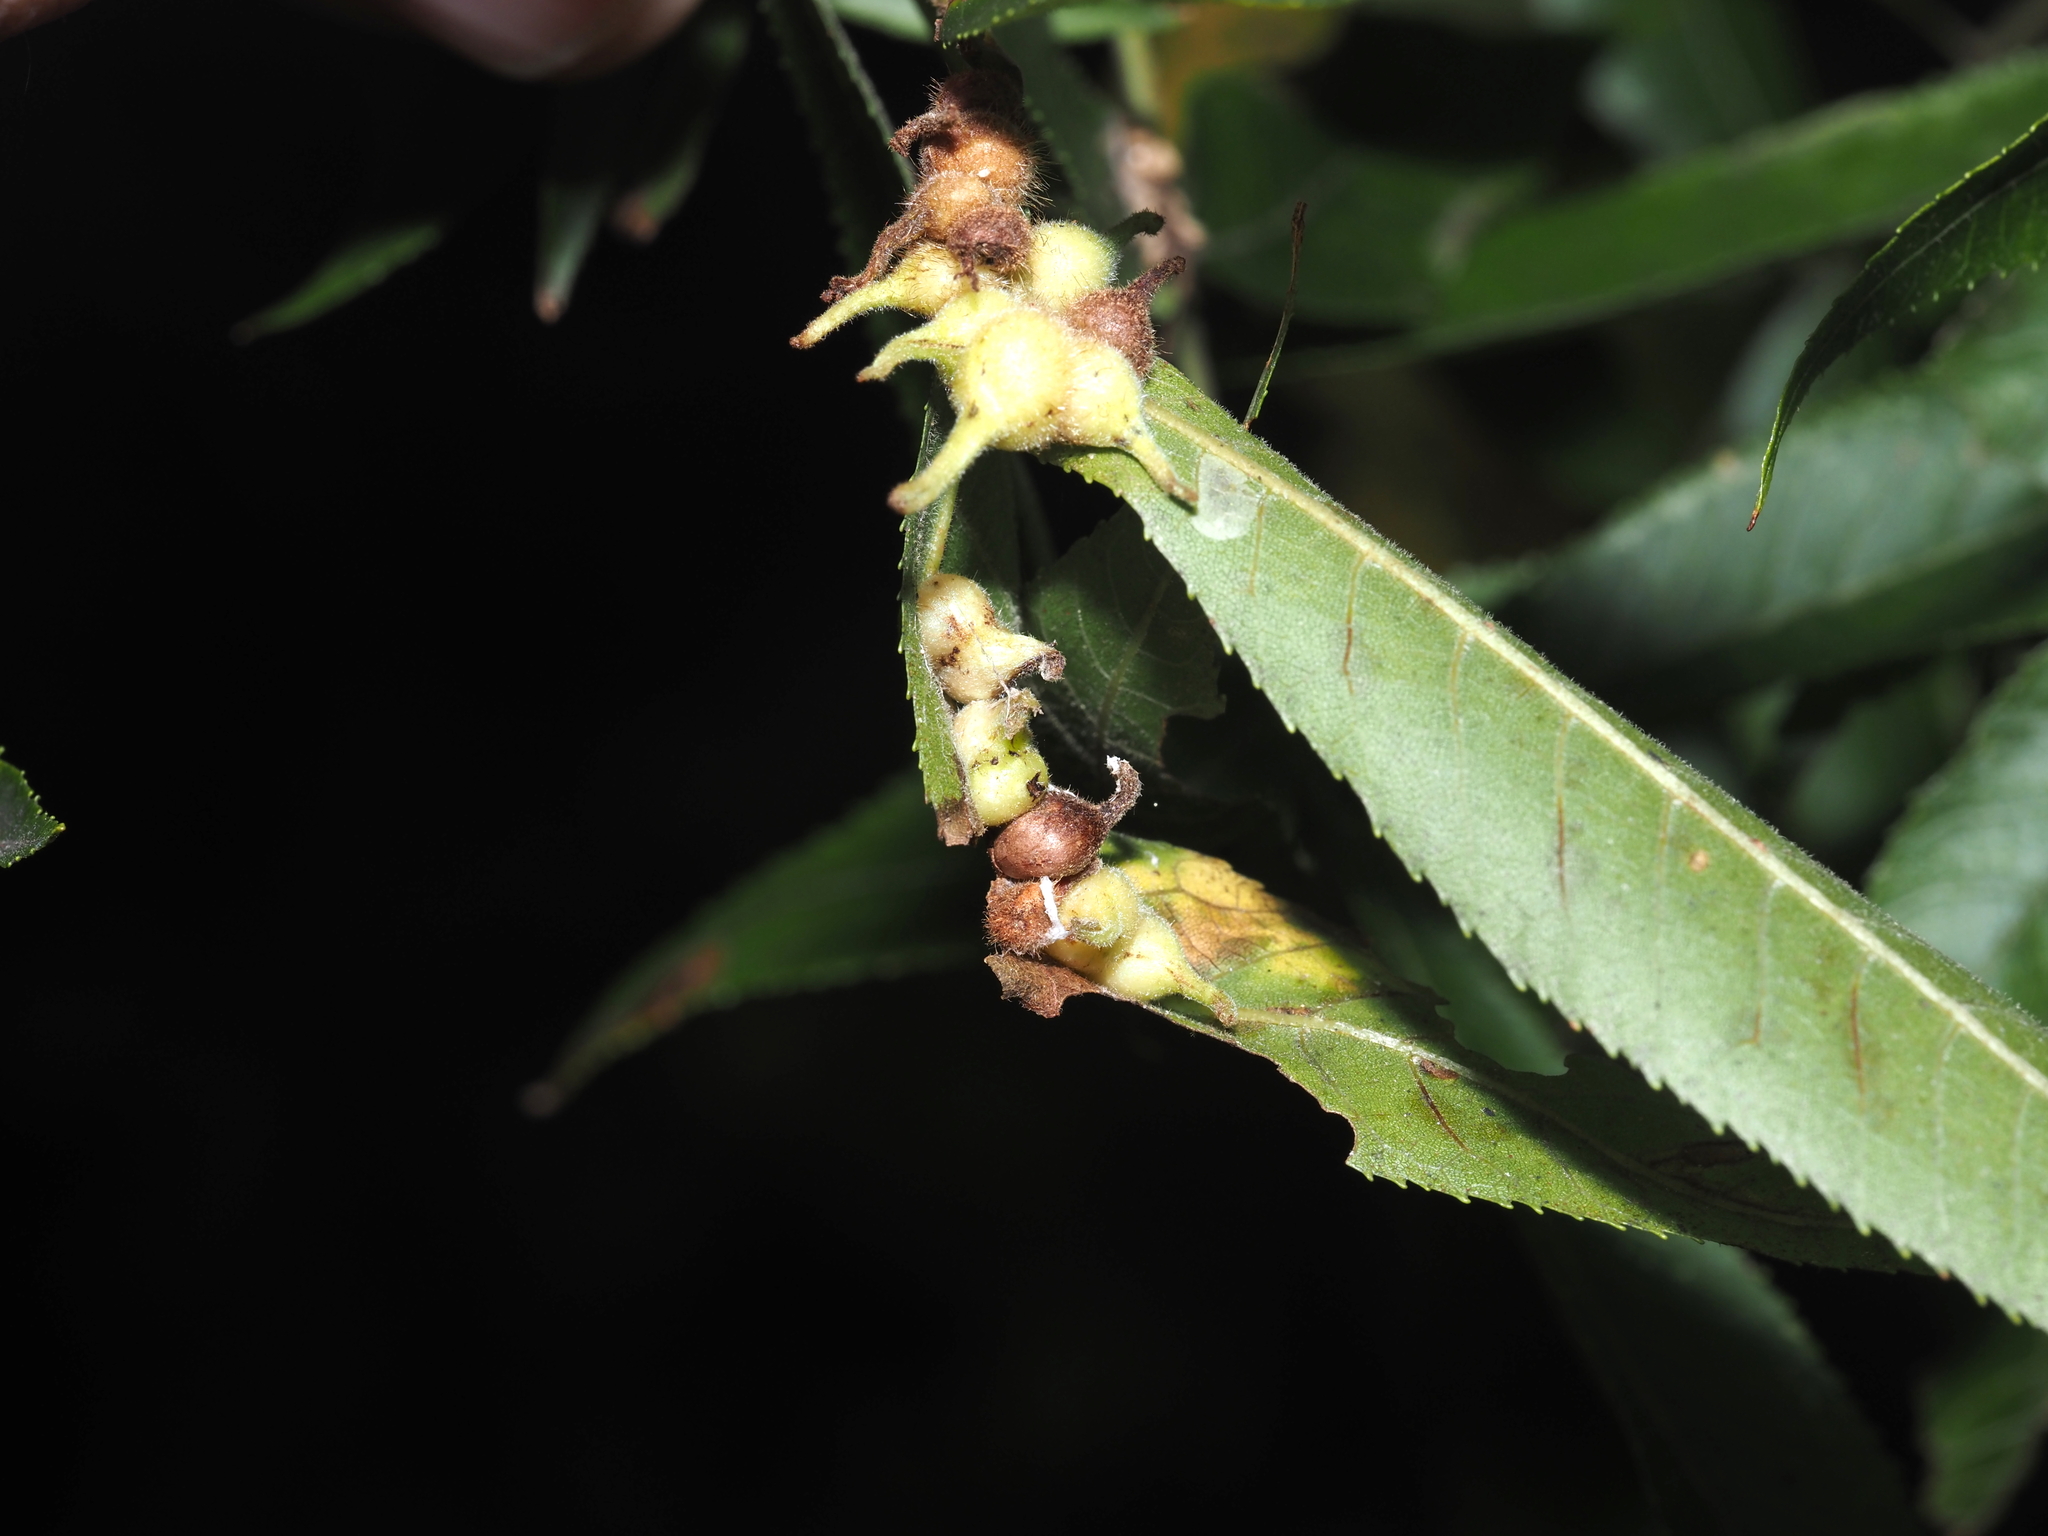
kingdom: Animalia
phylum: Arthropoda
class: Insecta
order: Diptera
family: Cecidomyiidae
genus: Caryomyia
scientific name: Caryomyia ansericollum
